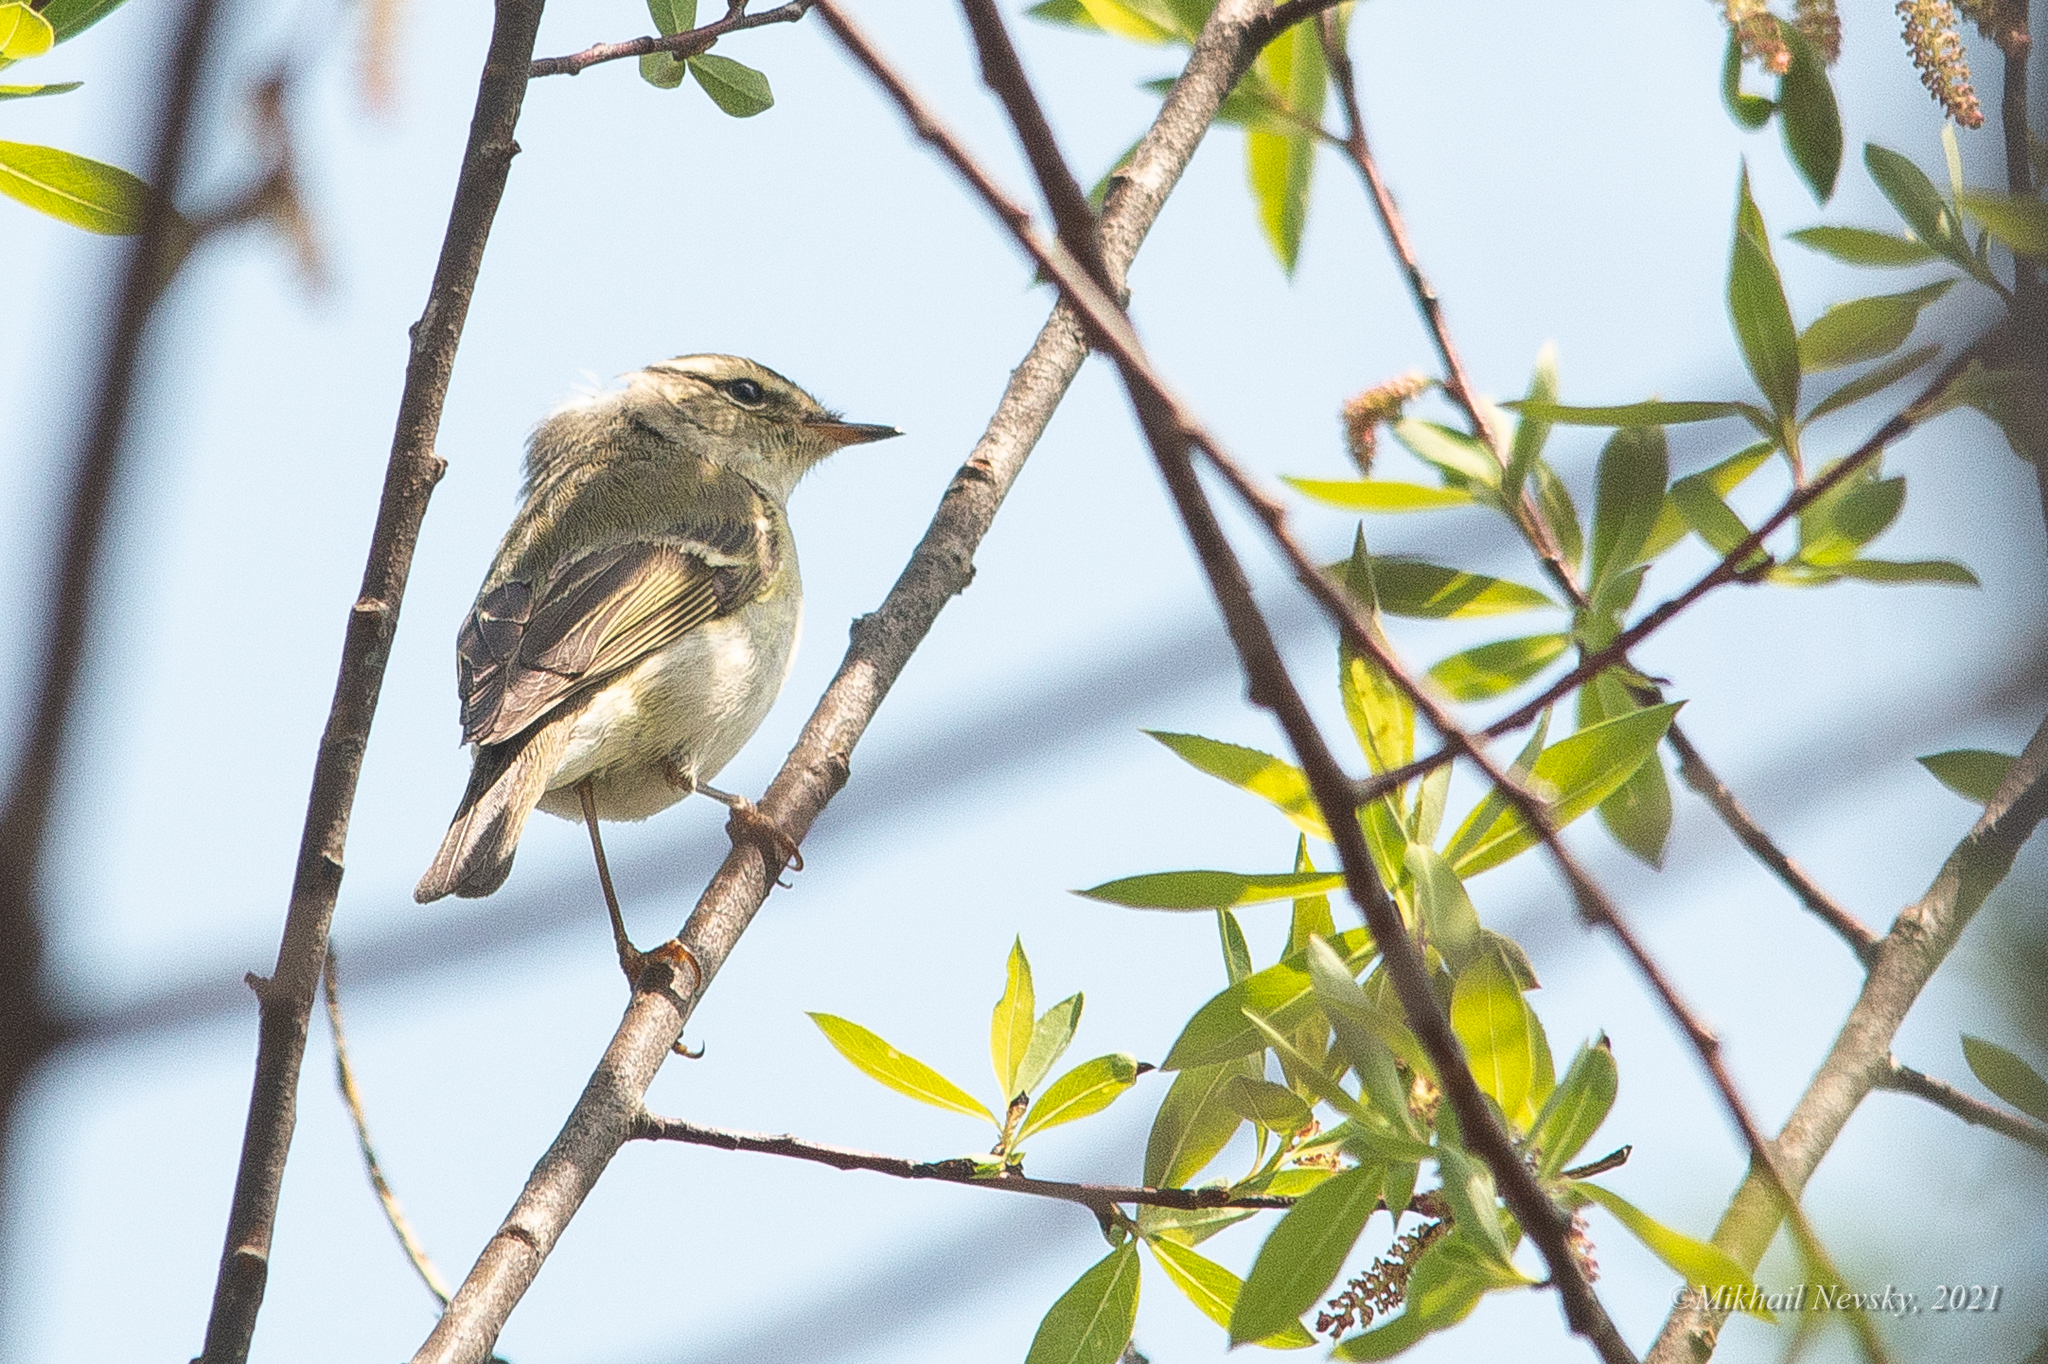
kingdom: Animalia
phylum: Chordata
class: Aves
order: Passeriformes
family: Phylloscopidae
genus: Phylloscopus
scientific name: Phylloscopus inornatus
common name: Yellow-browed warbler
